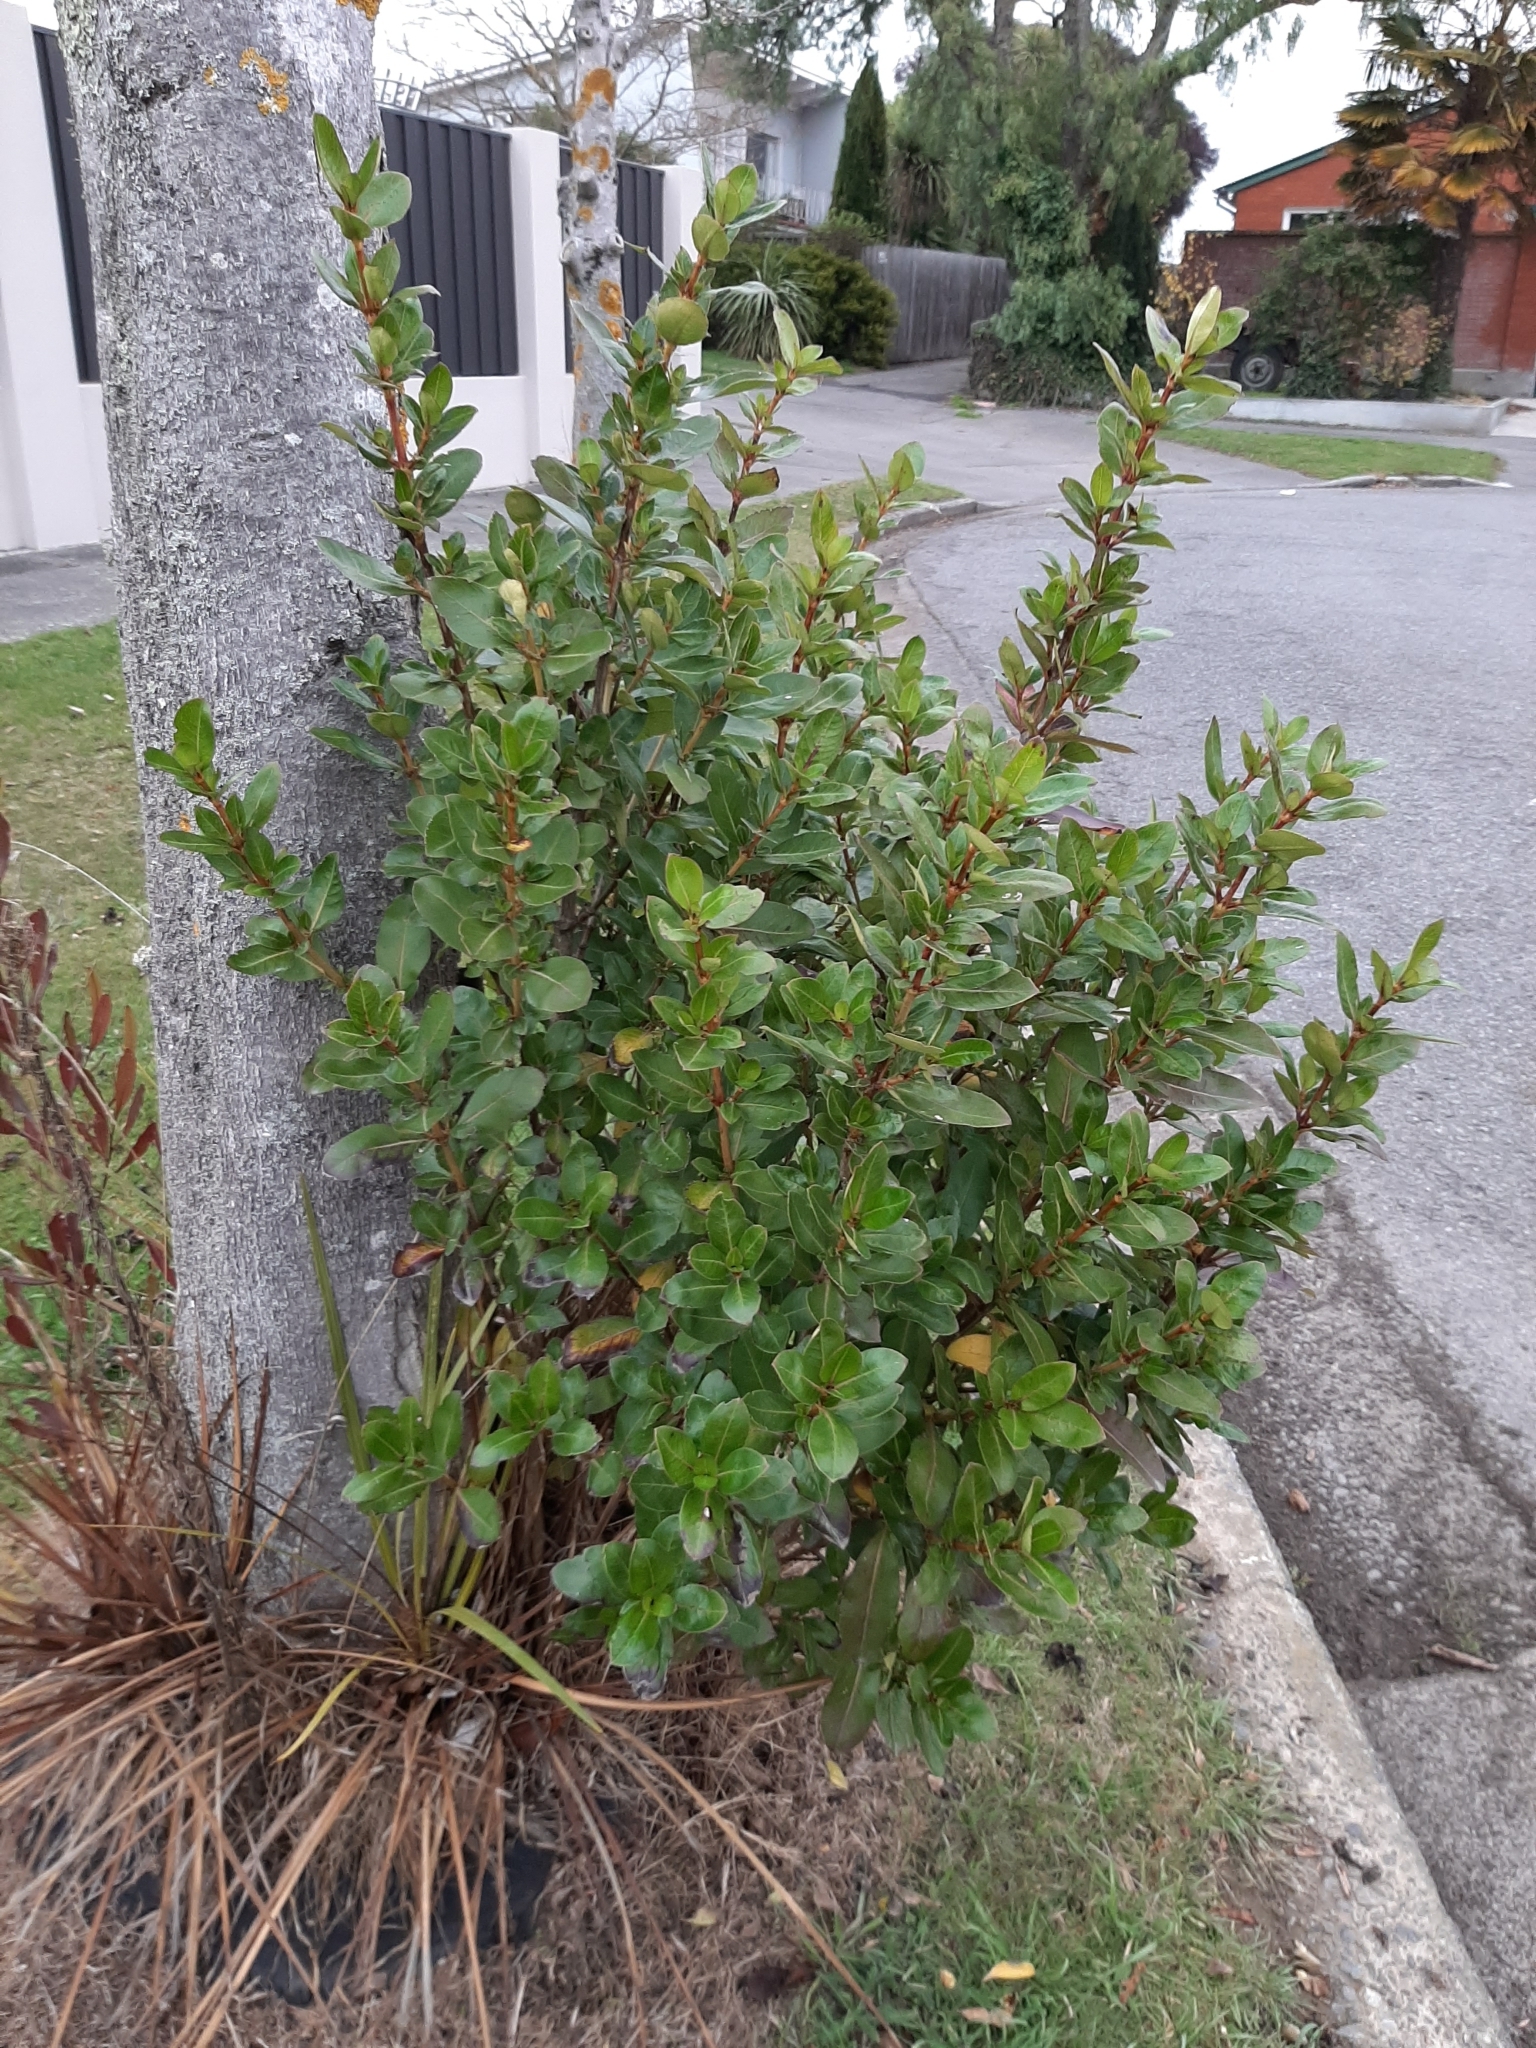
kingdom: Plantae
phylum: Tracheophyta
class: Magnoliopsida
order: Gentianales
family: Rubiaceae
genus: Coprosma
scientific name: Coprosma robusta
